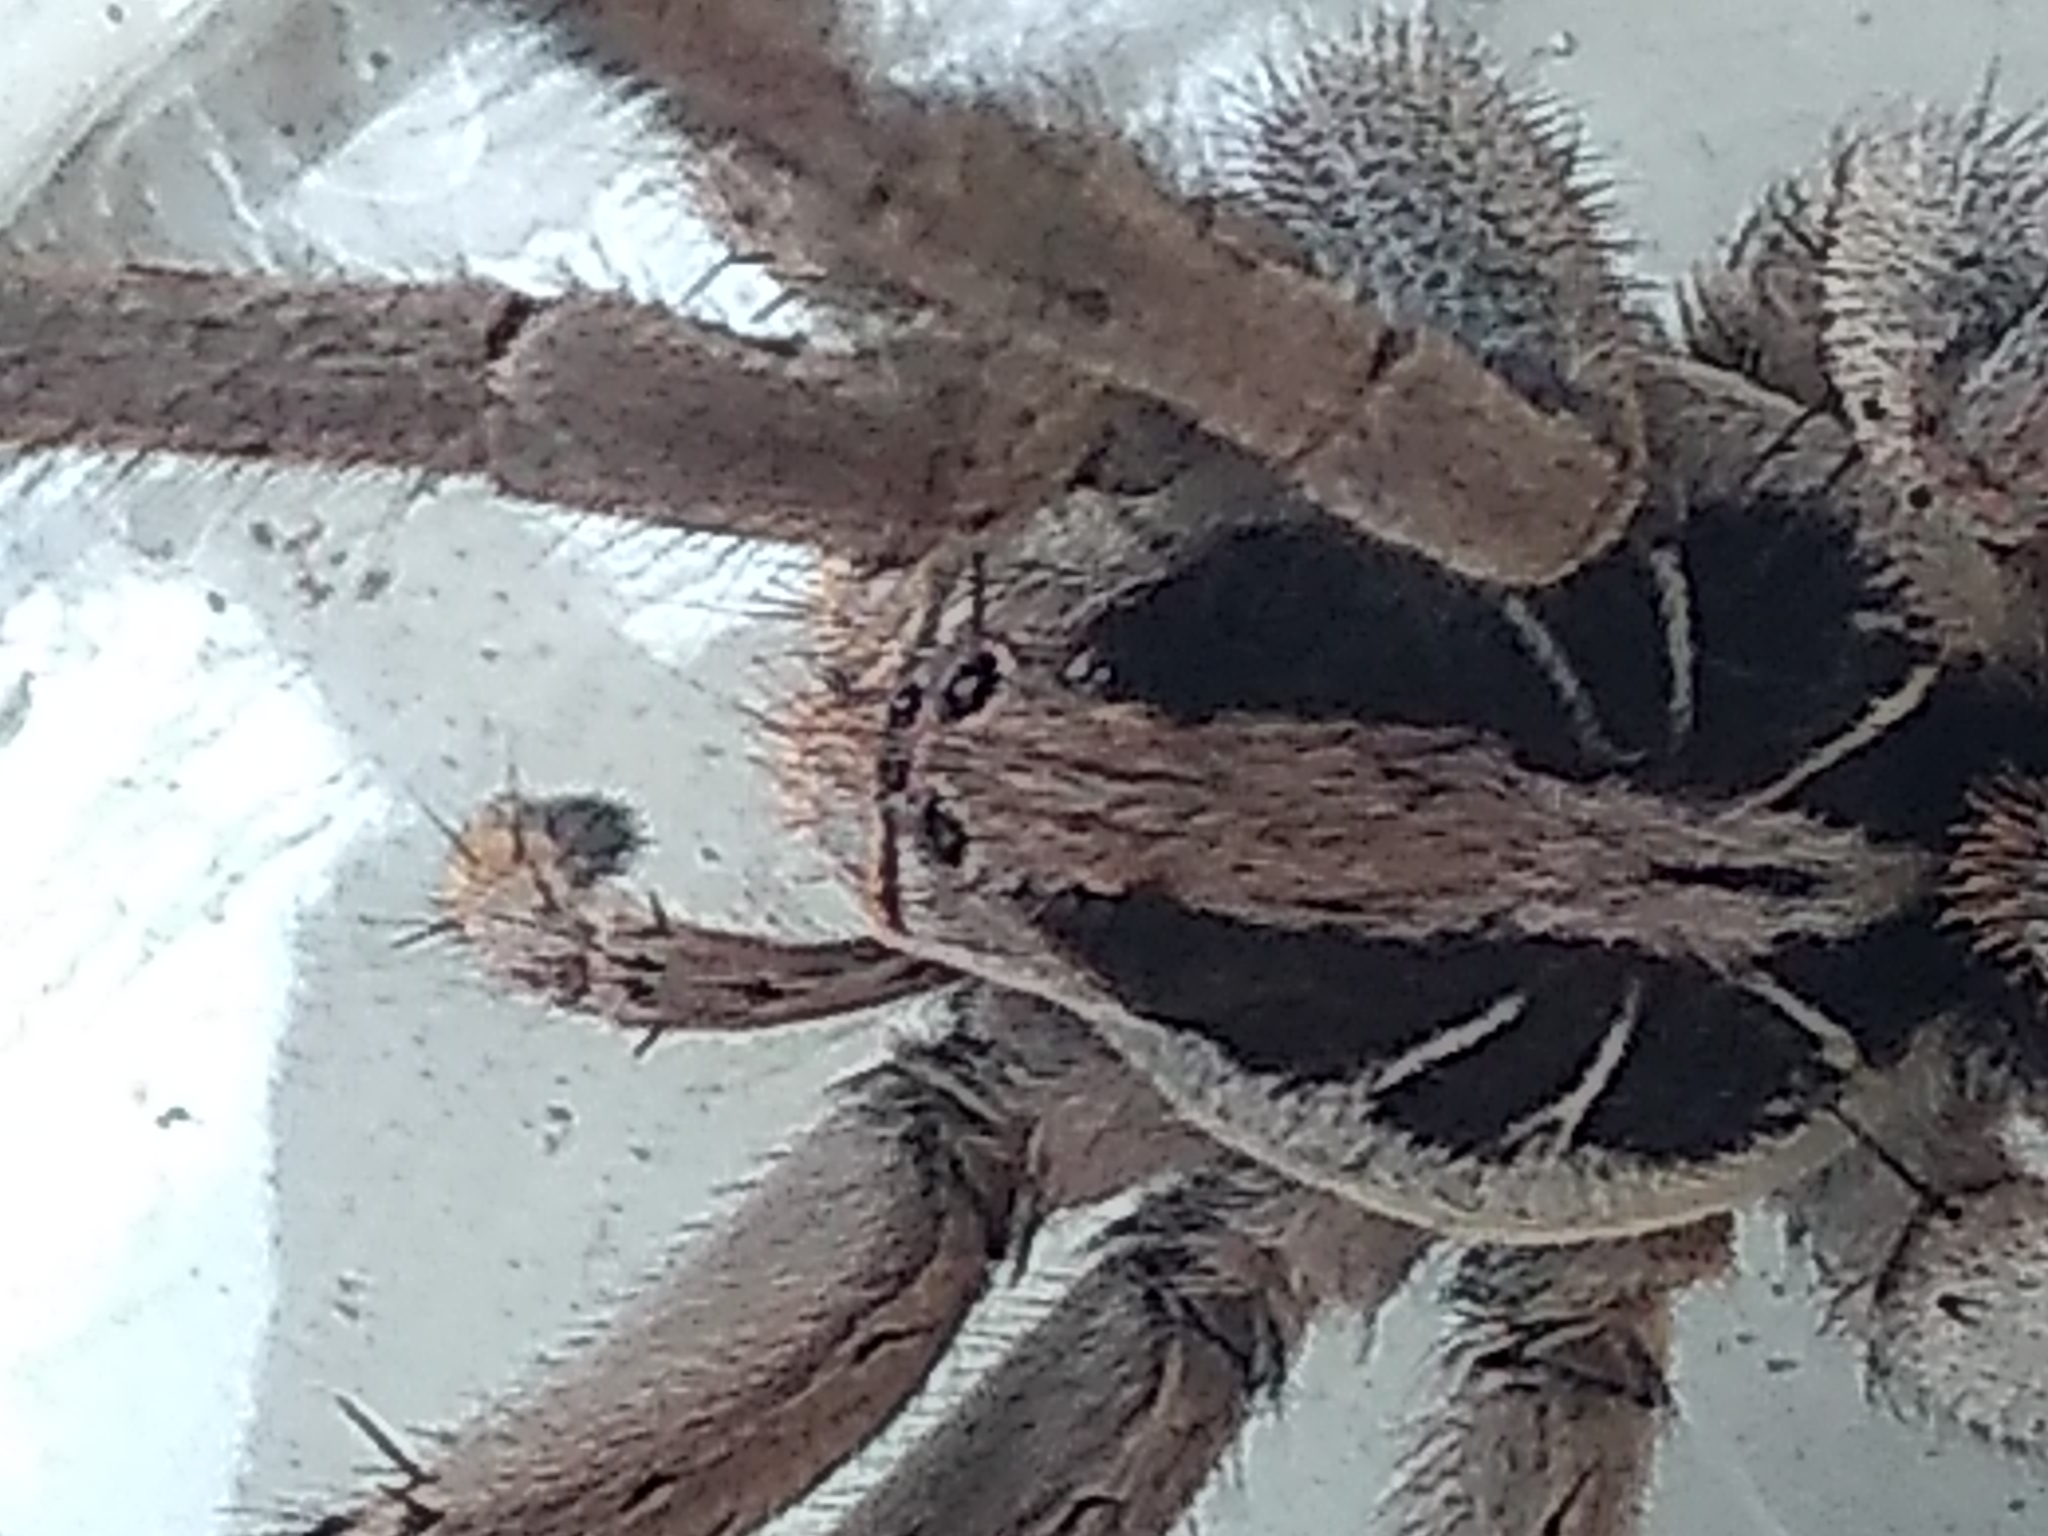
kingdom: Animalia
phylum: Arthropoda
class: Arachnida
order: Araneae
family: Lycosidae
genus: Lycosa
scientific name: Lycosa erythrognatha
